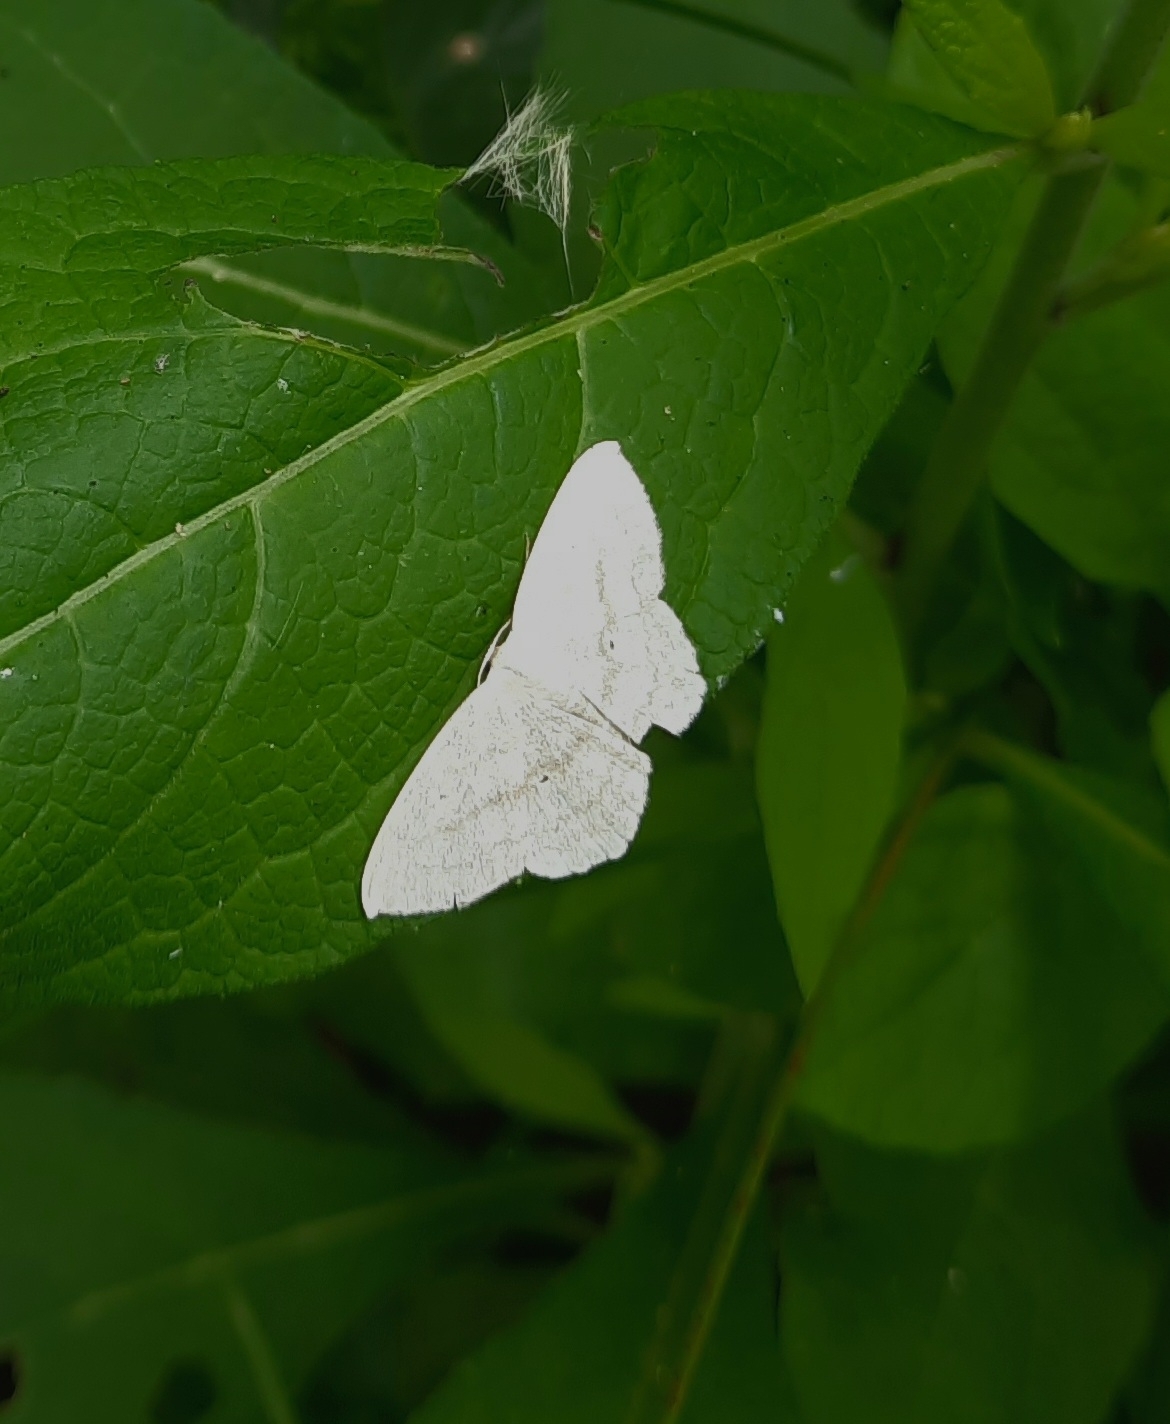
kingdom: Animalia
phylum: Arthropoda
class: Insecta
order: Lepidoptera
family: Geometridae
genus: Scopula
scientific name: Scopula nigropunctata
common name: Sub-angled wave
